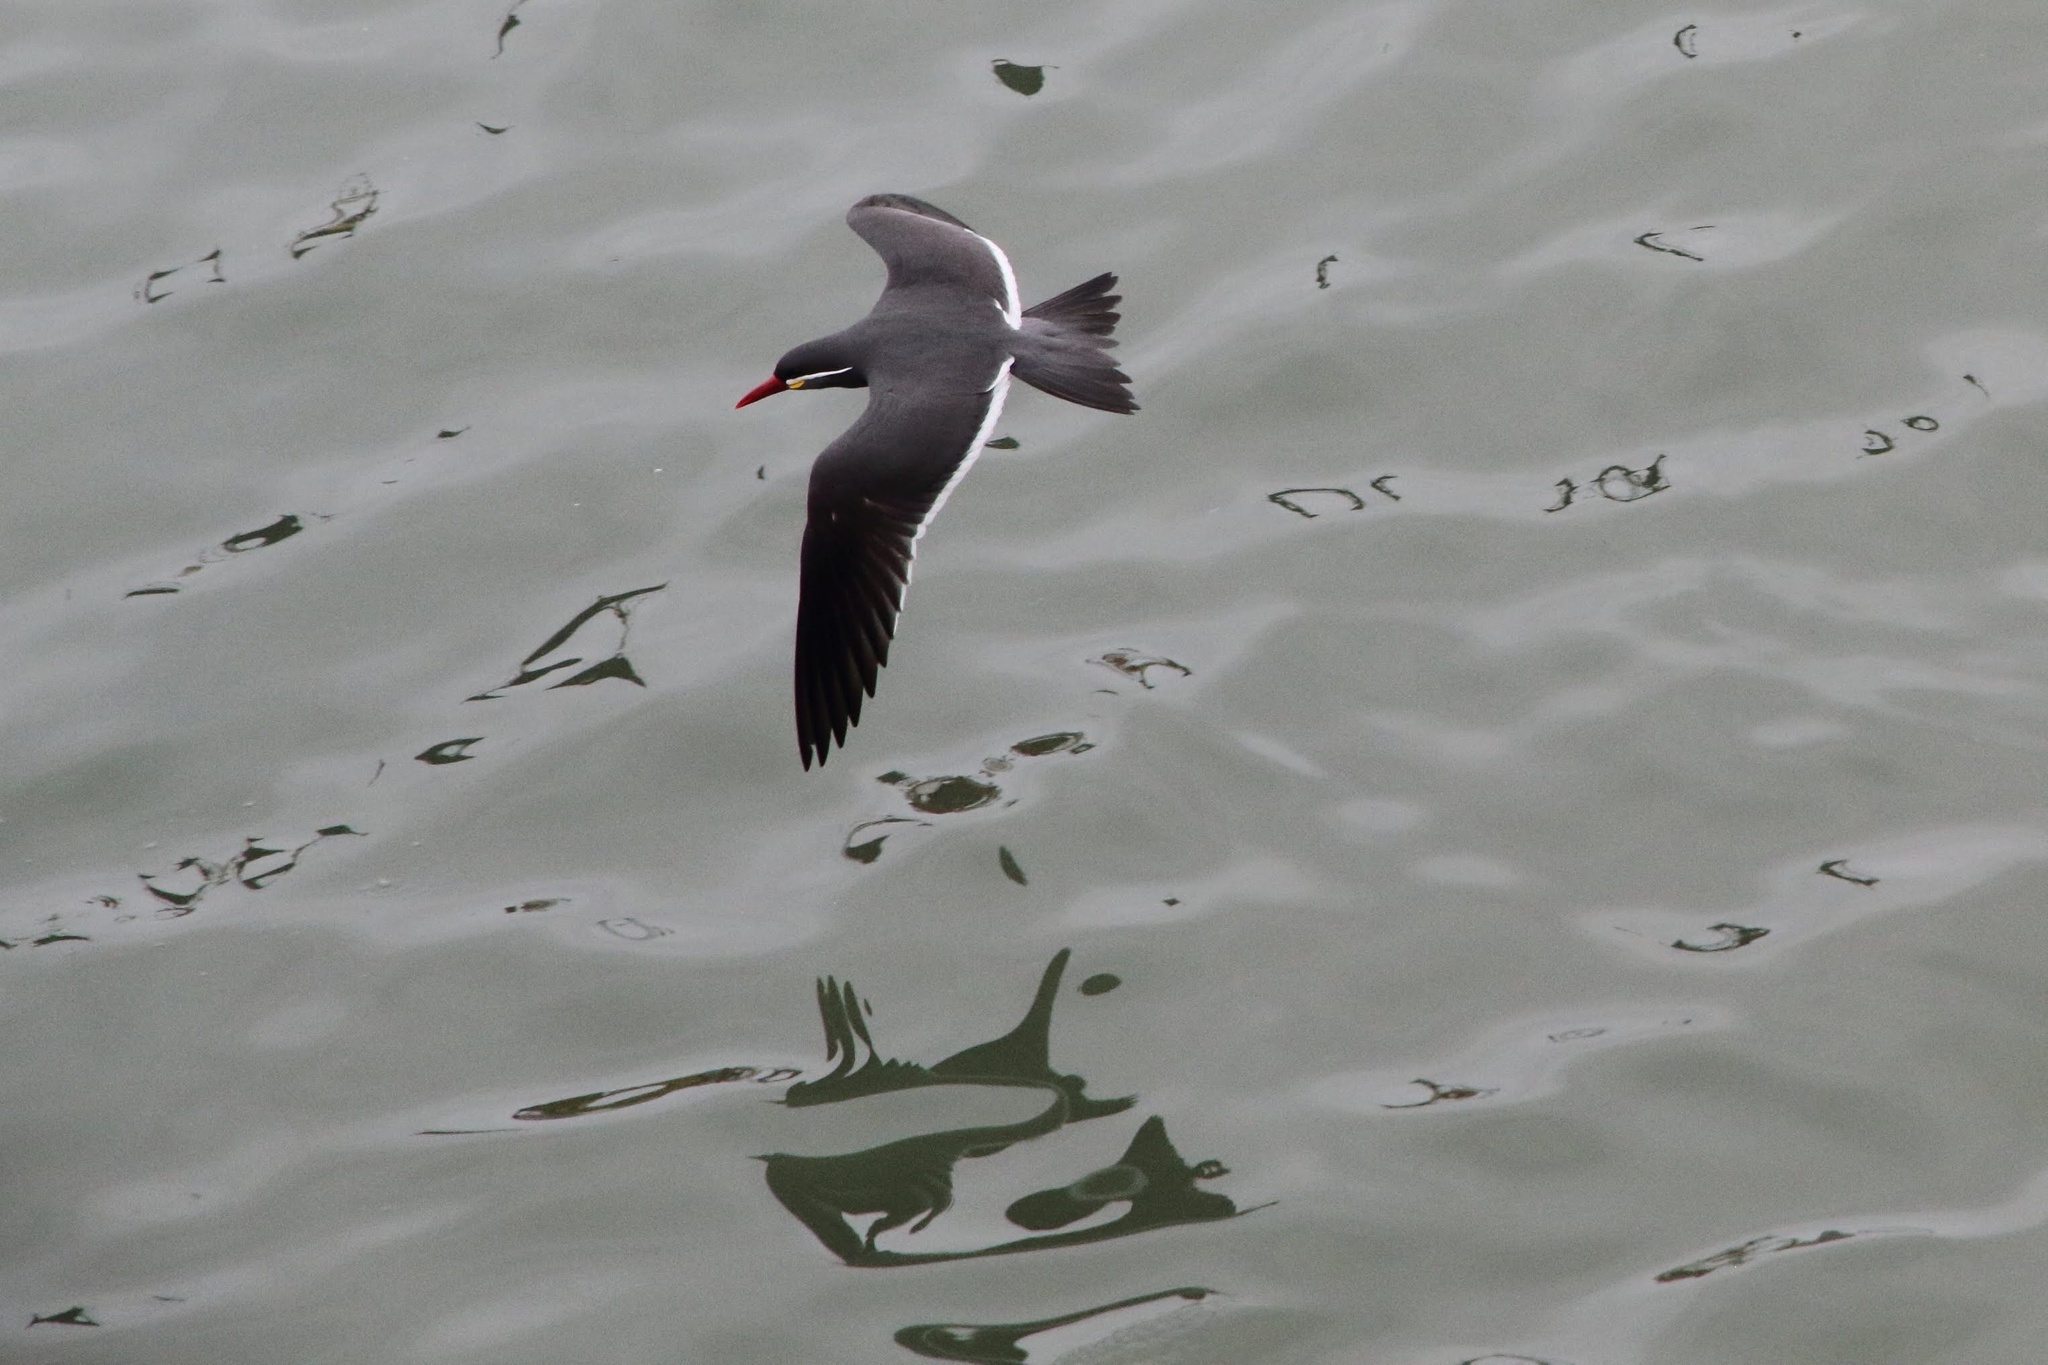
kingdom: Animalia
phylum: Chordata
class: Aves
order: Charadriiformes
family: Laridae
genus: Larosterna
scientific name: Larosterna inca
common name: Inca tern
